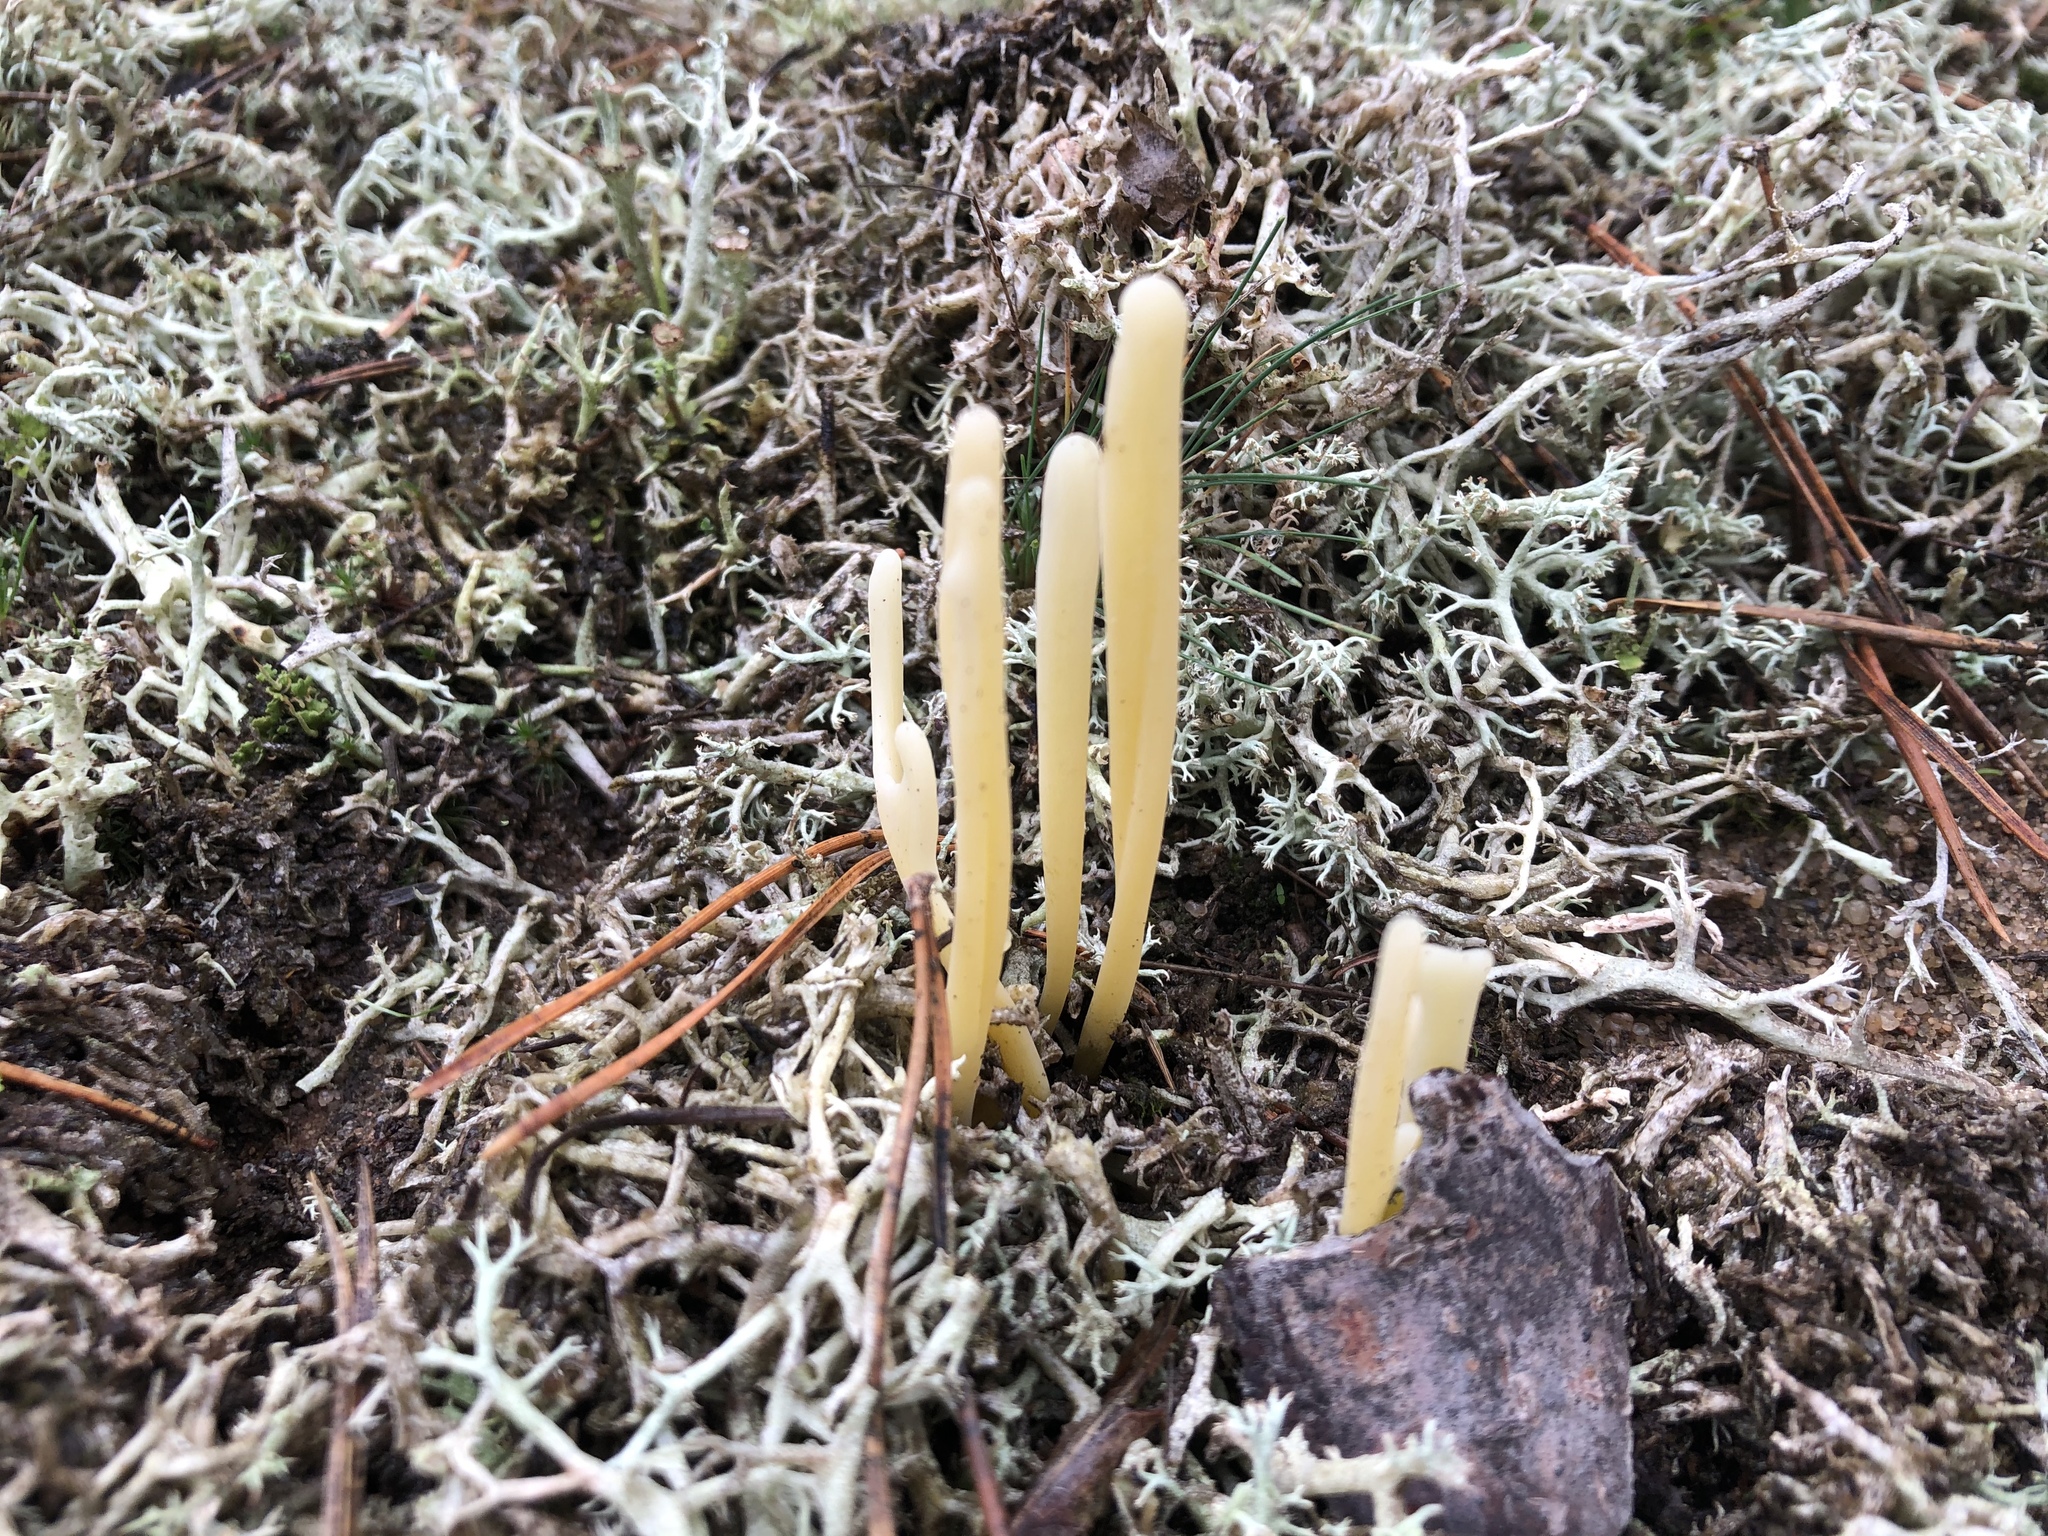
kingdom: Fungi
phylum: Basidiomycota
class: Agaricomycetes
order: Agaricales
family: Clavariaceae
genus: Clavaria
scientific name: Clavaria argillacea
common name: Moor club
